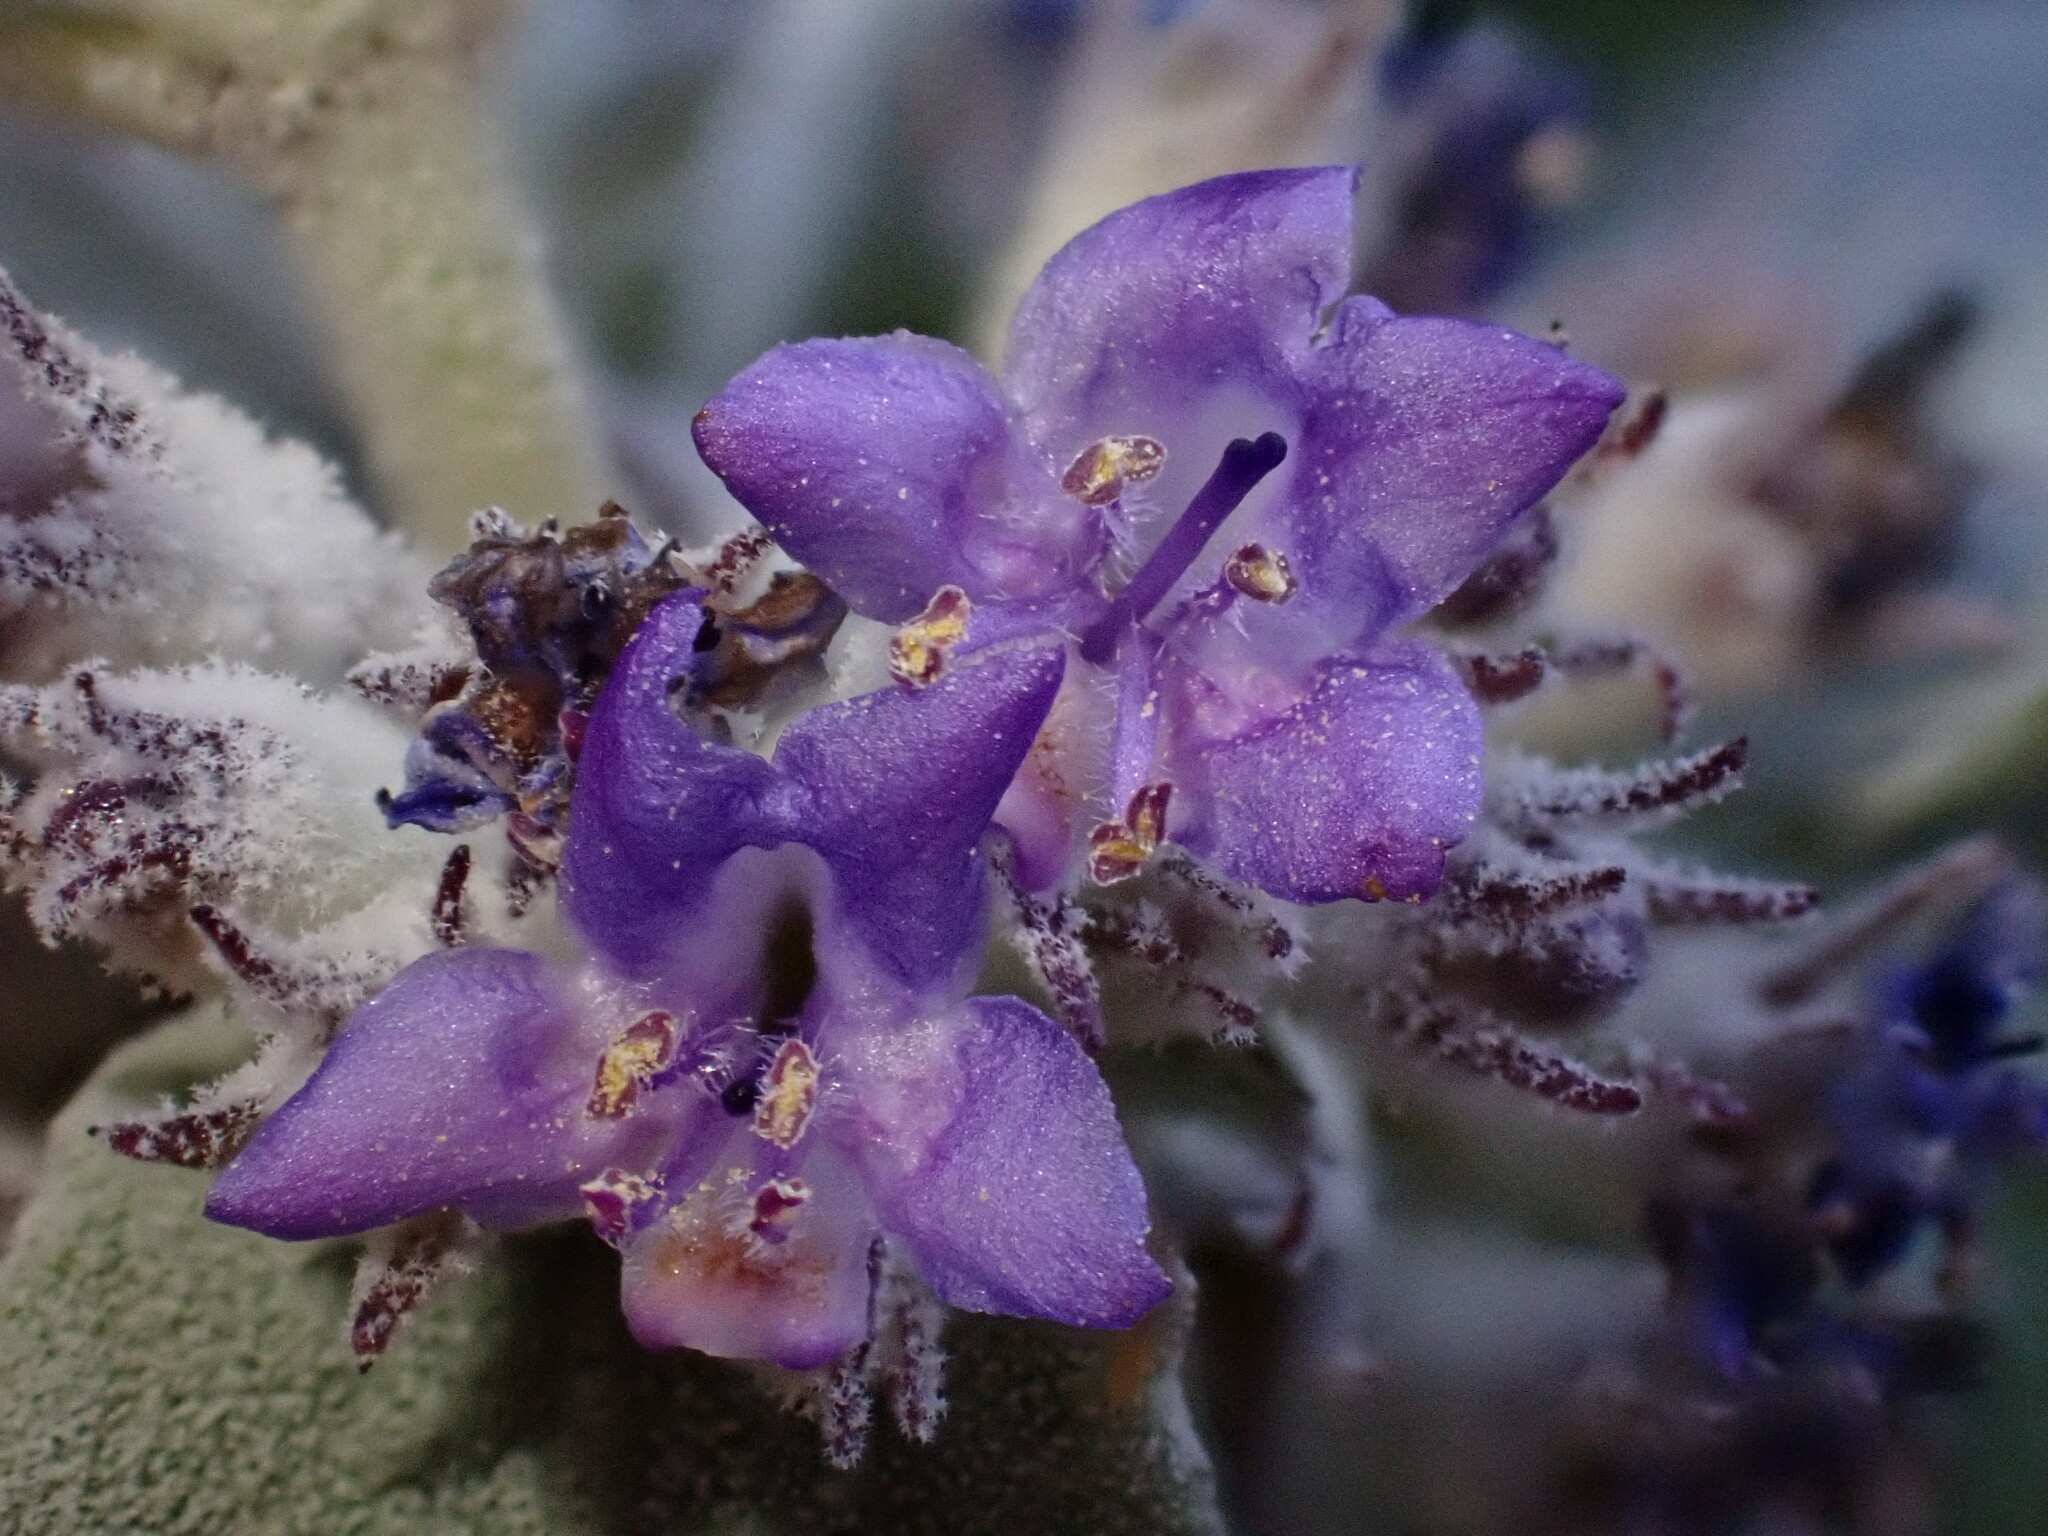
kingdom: Plantae
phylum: Tracheophyta
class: Magnoliopsida
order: Lamiales
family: Lamiaceae
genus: Condea
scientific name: Condea emoryi
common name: Chia
